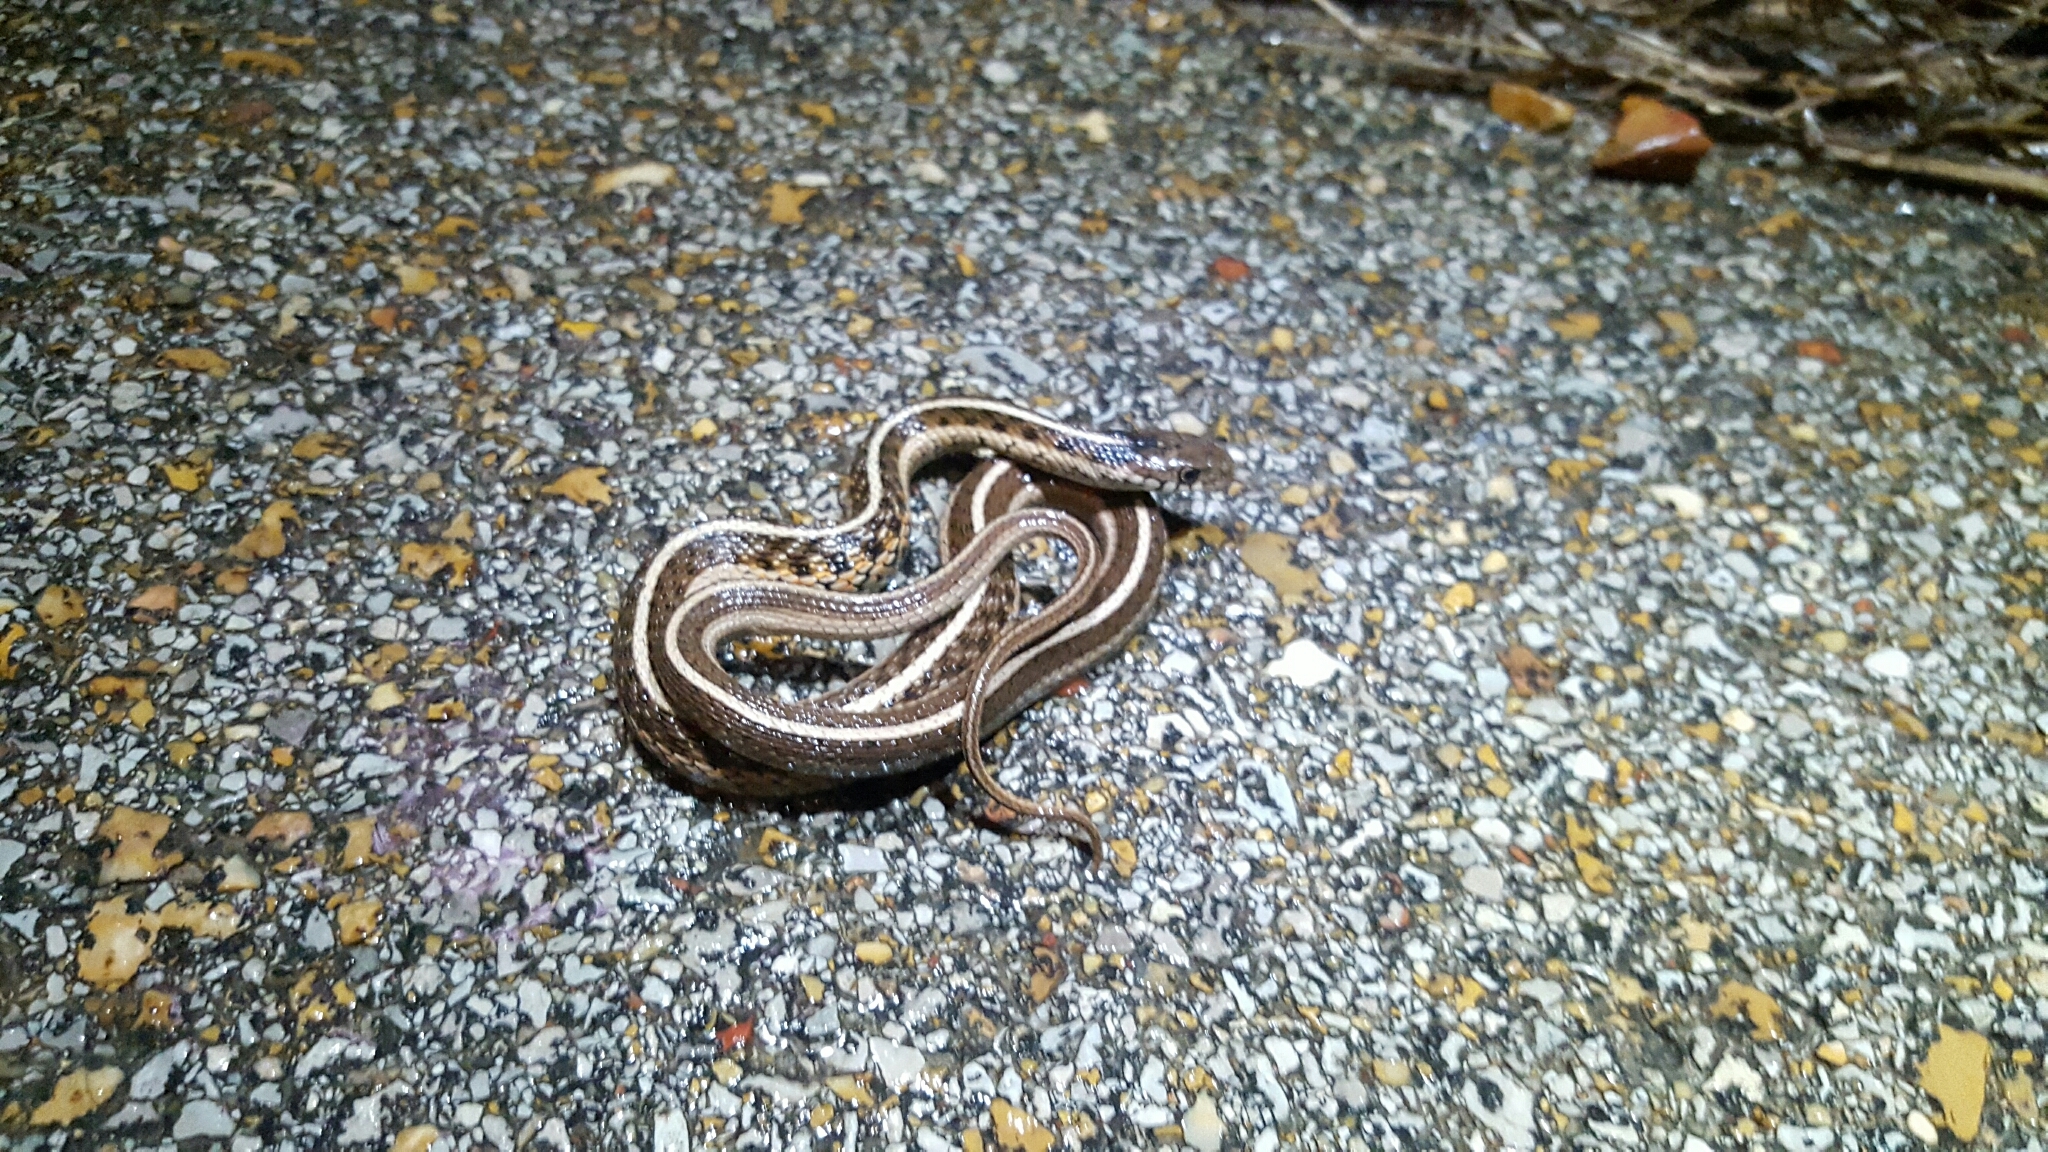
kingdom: Animalia
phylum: Chordata
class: Squamata
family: Colubridae
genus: Thamnophis
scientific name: Thamnophis sirtalis
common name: Common garter snake
